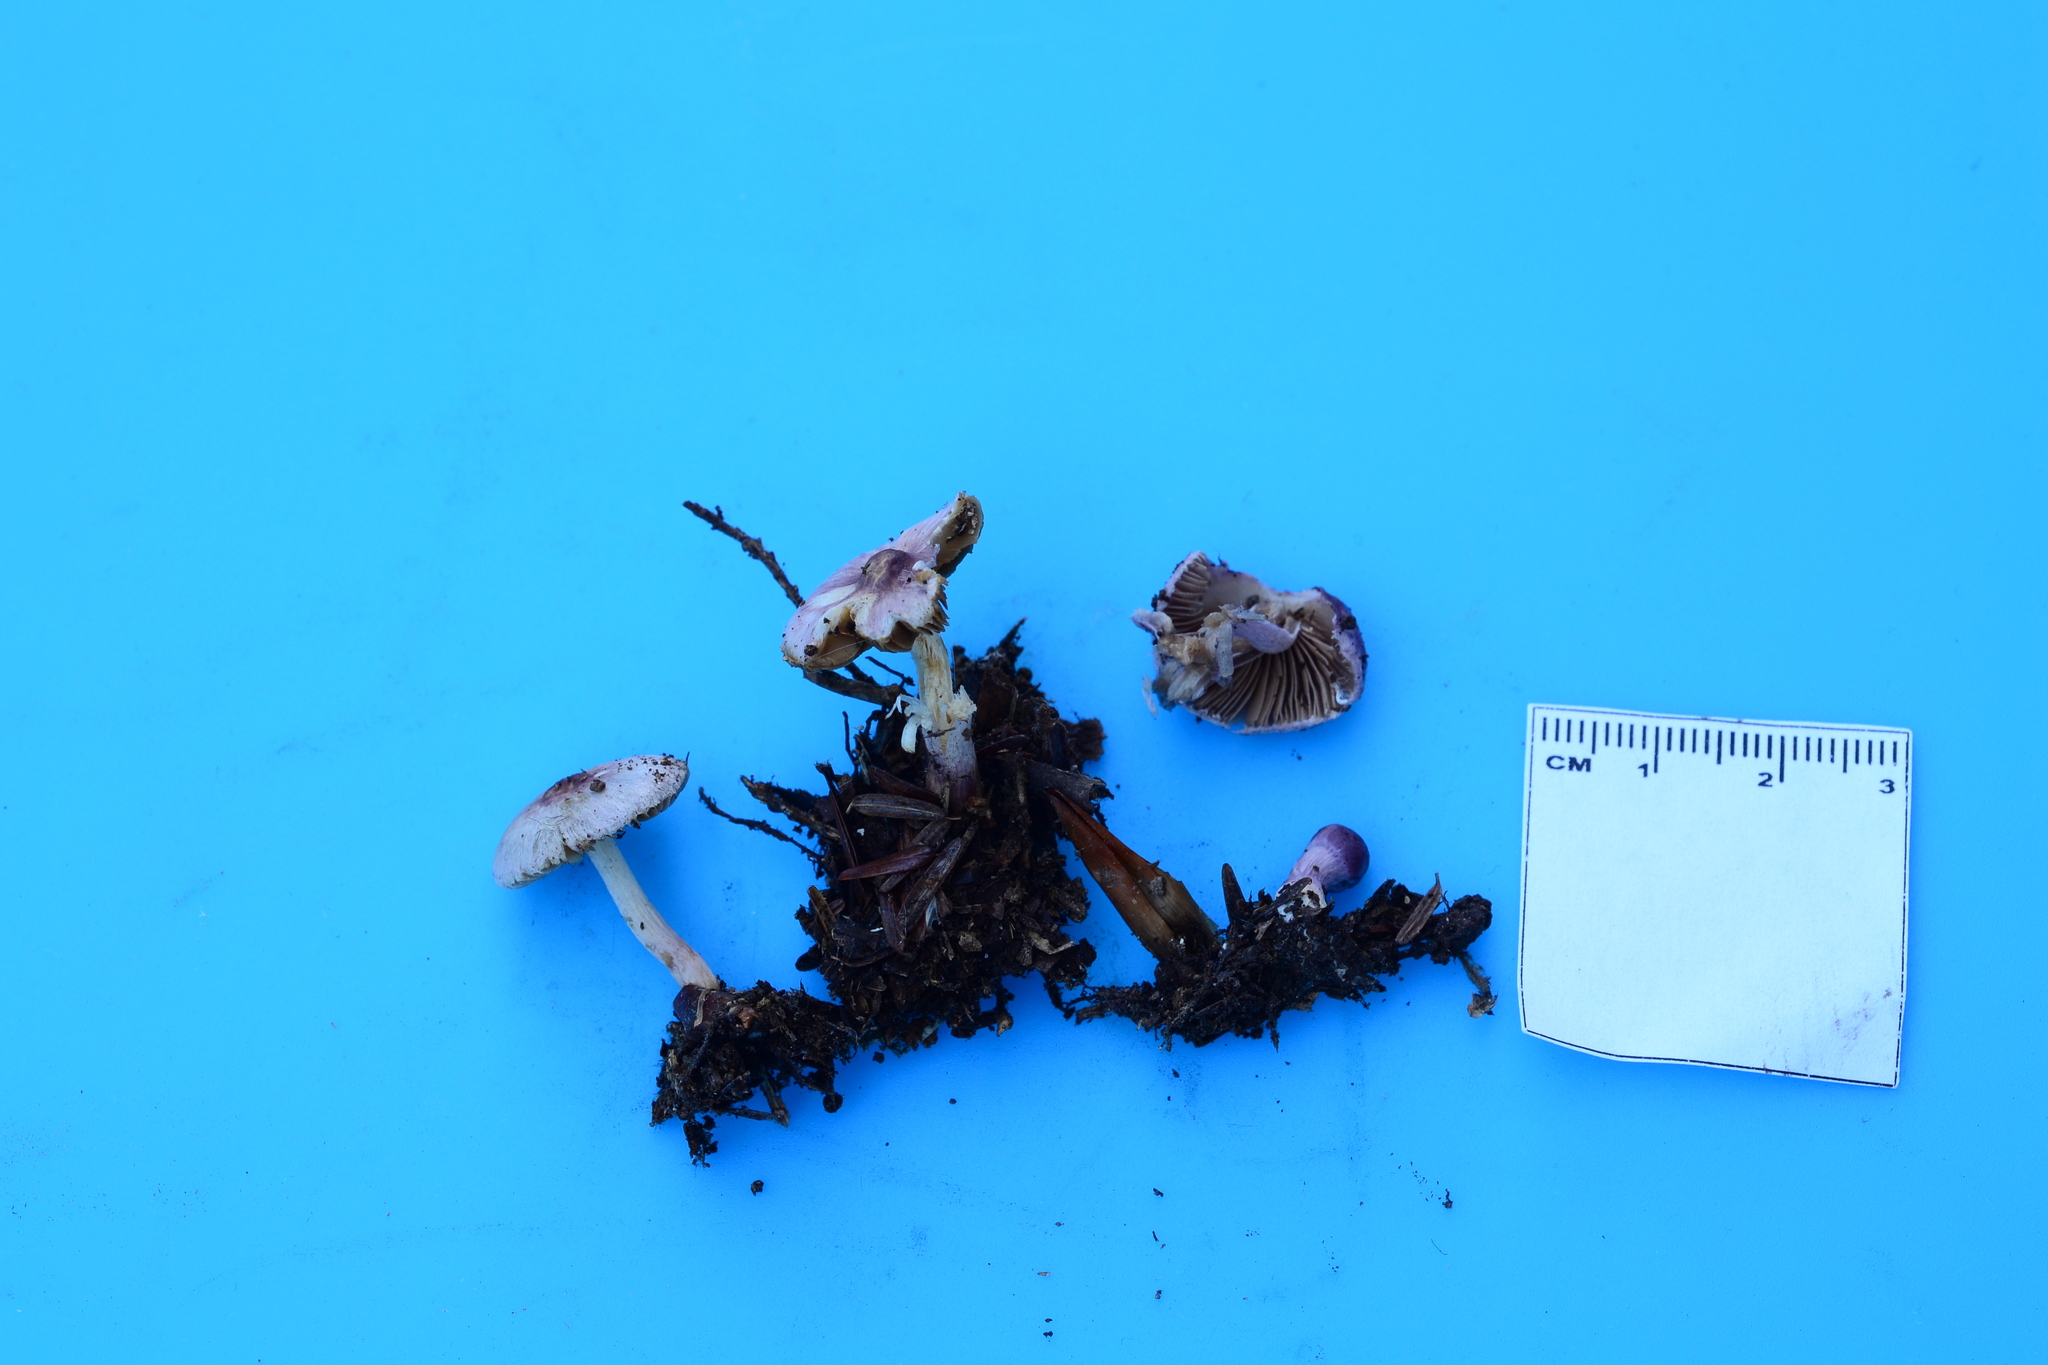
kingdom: Fungi
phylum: Basidiomycota
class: Agaricomycetes
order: Agaricales
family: Inocybaceae
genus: Inocybe
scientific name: Inocybe geophylla
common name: White fibrecap
